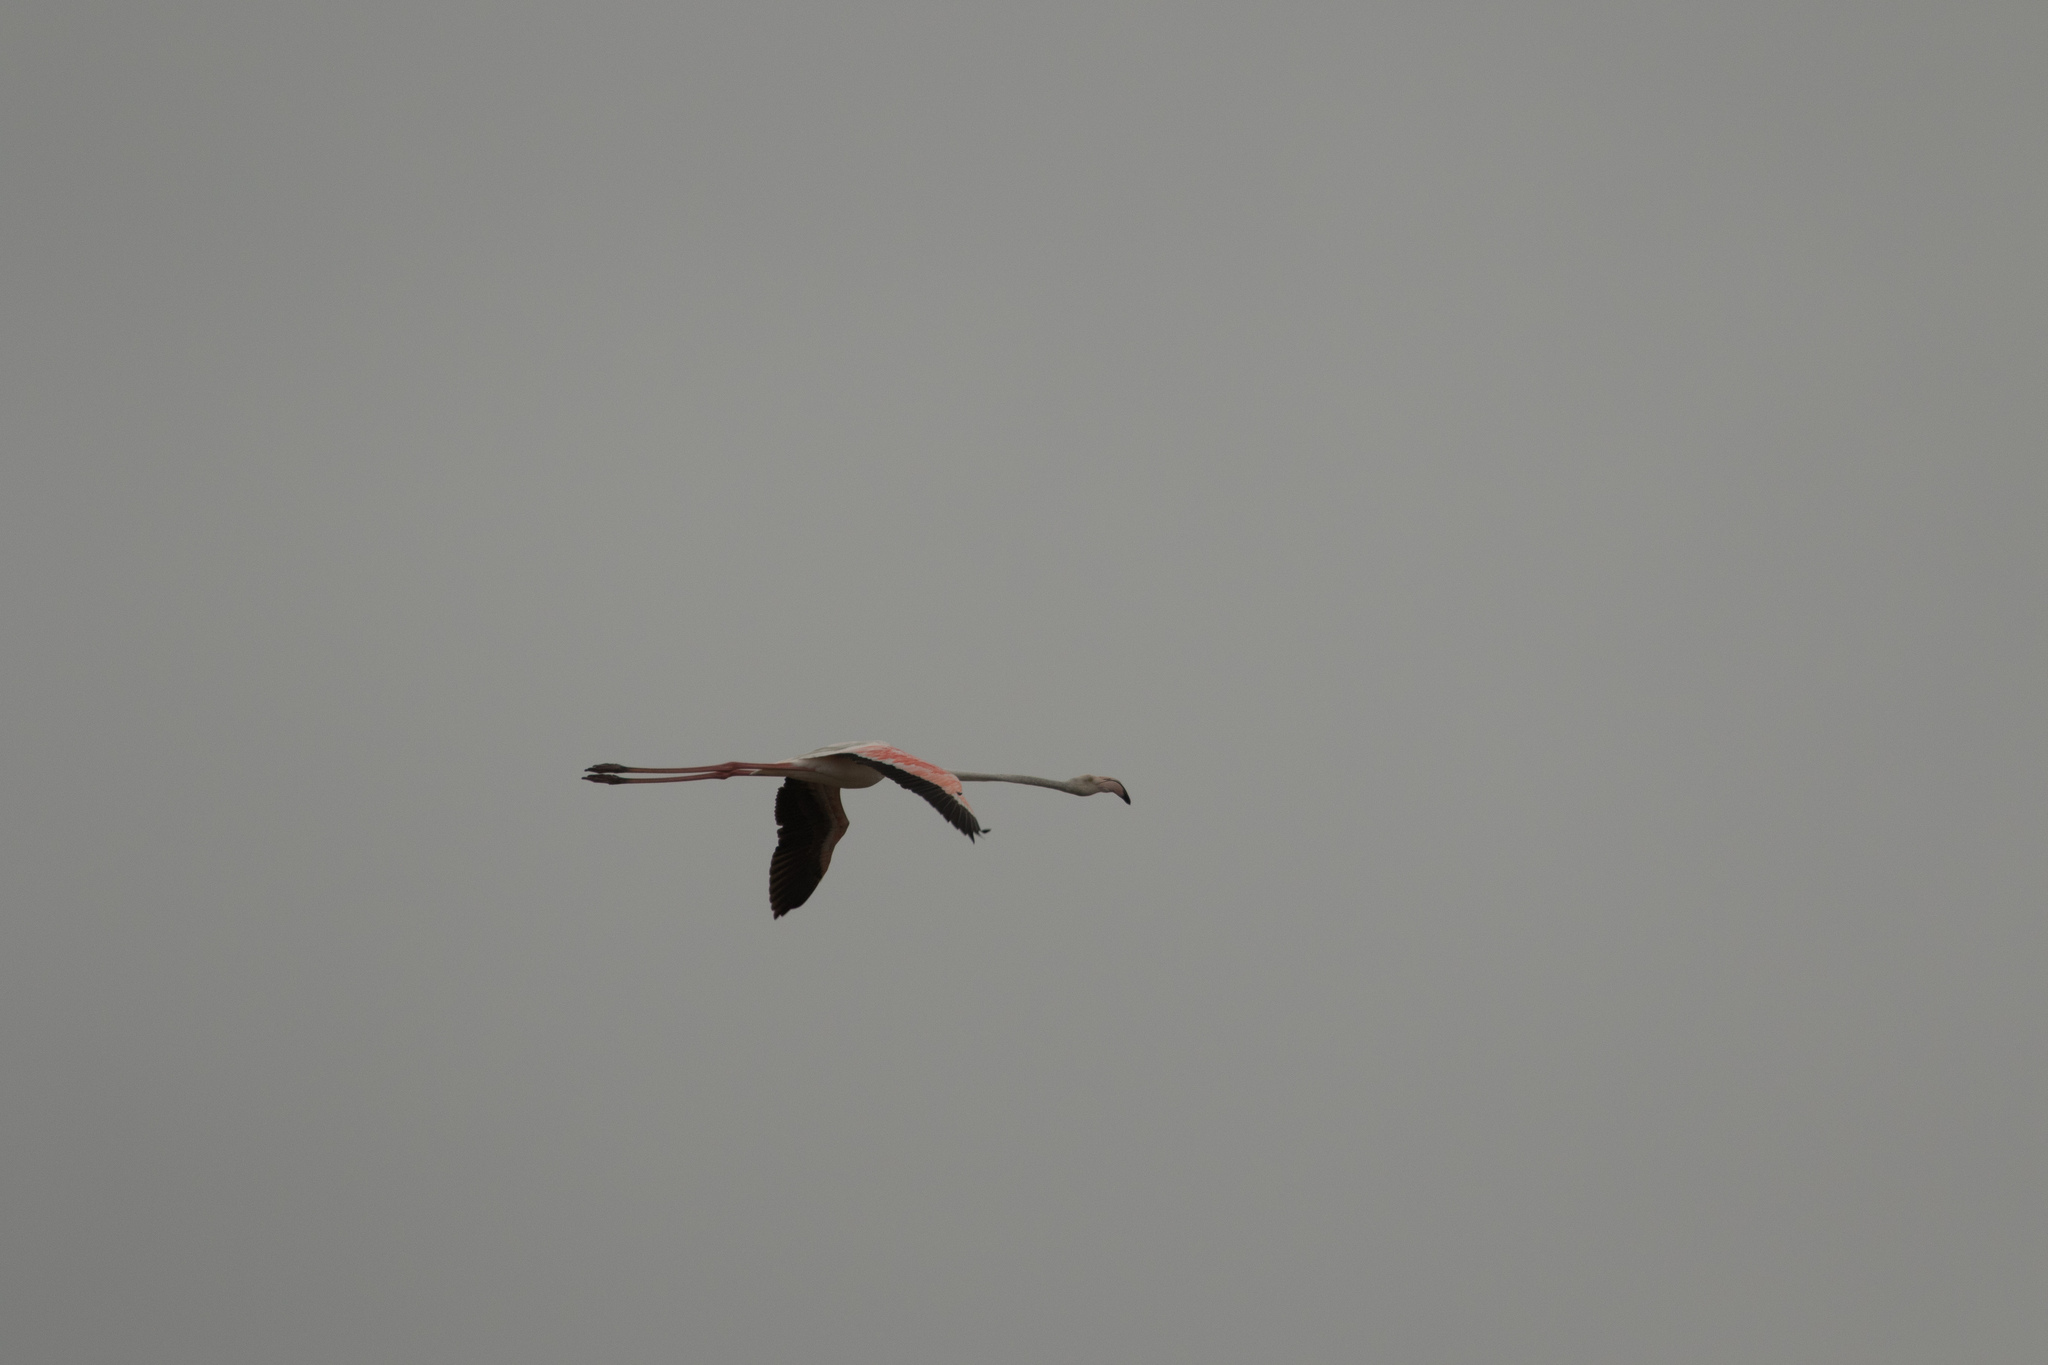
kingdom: Animalia
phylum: Chordata
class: Aves
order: Phoenicopteriformes
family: Phoenicopteridae
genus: Phoenicopterus
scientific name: Phoenicopterus roseus
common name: Greater flamingo
